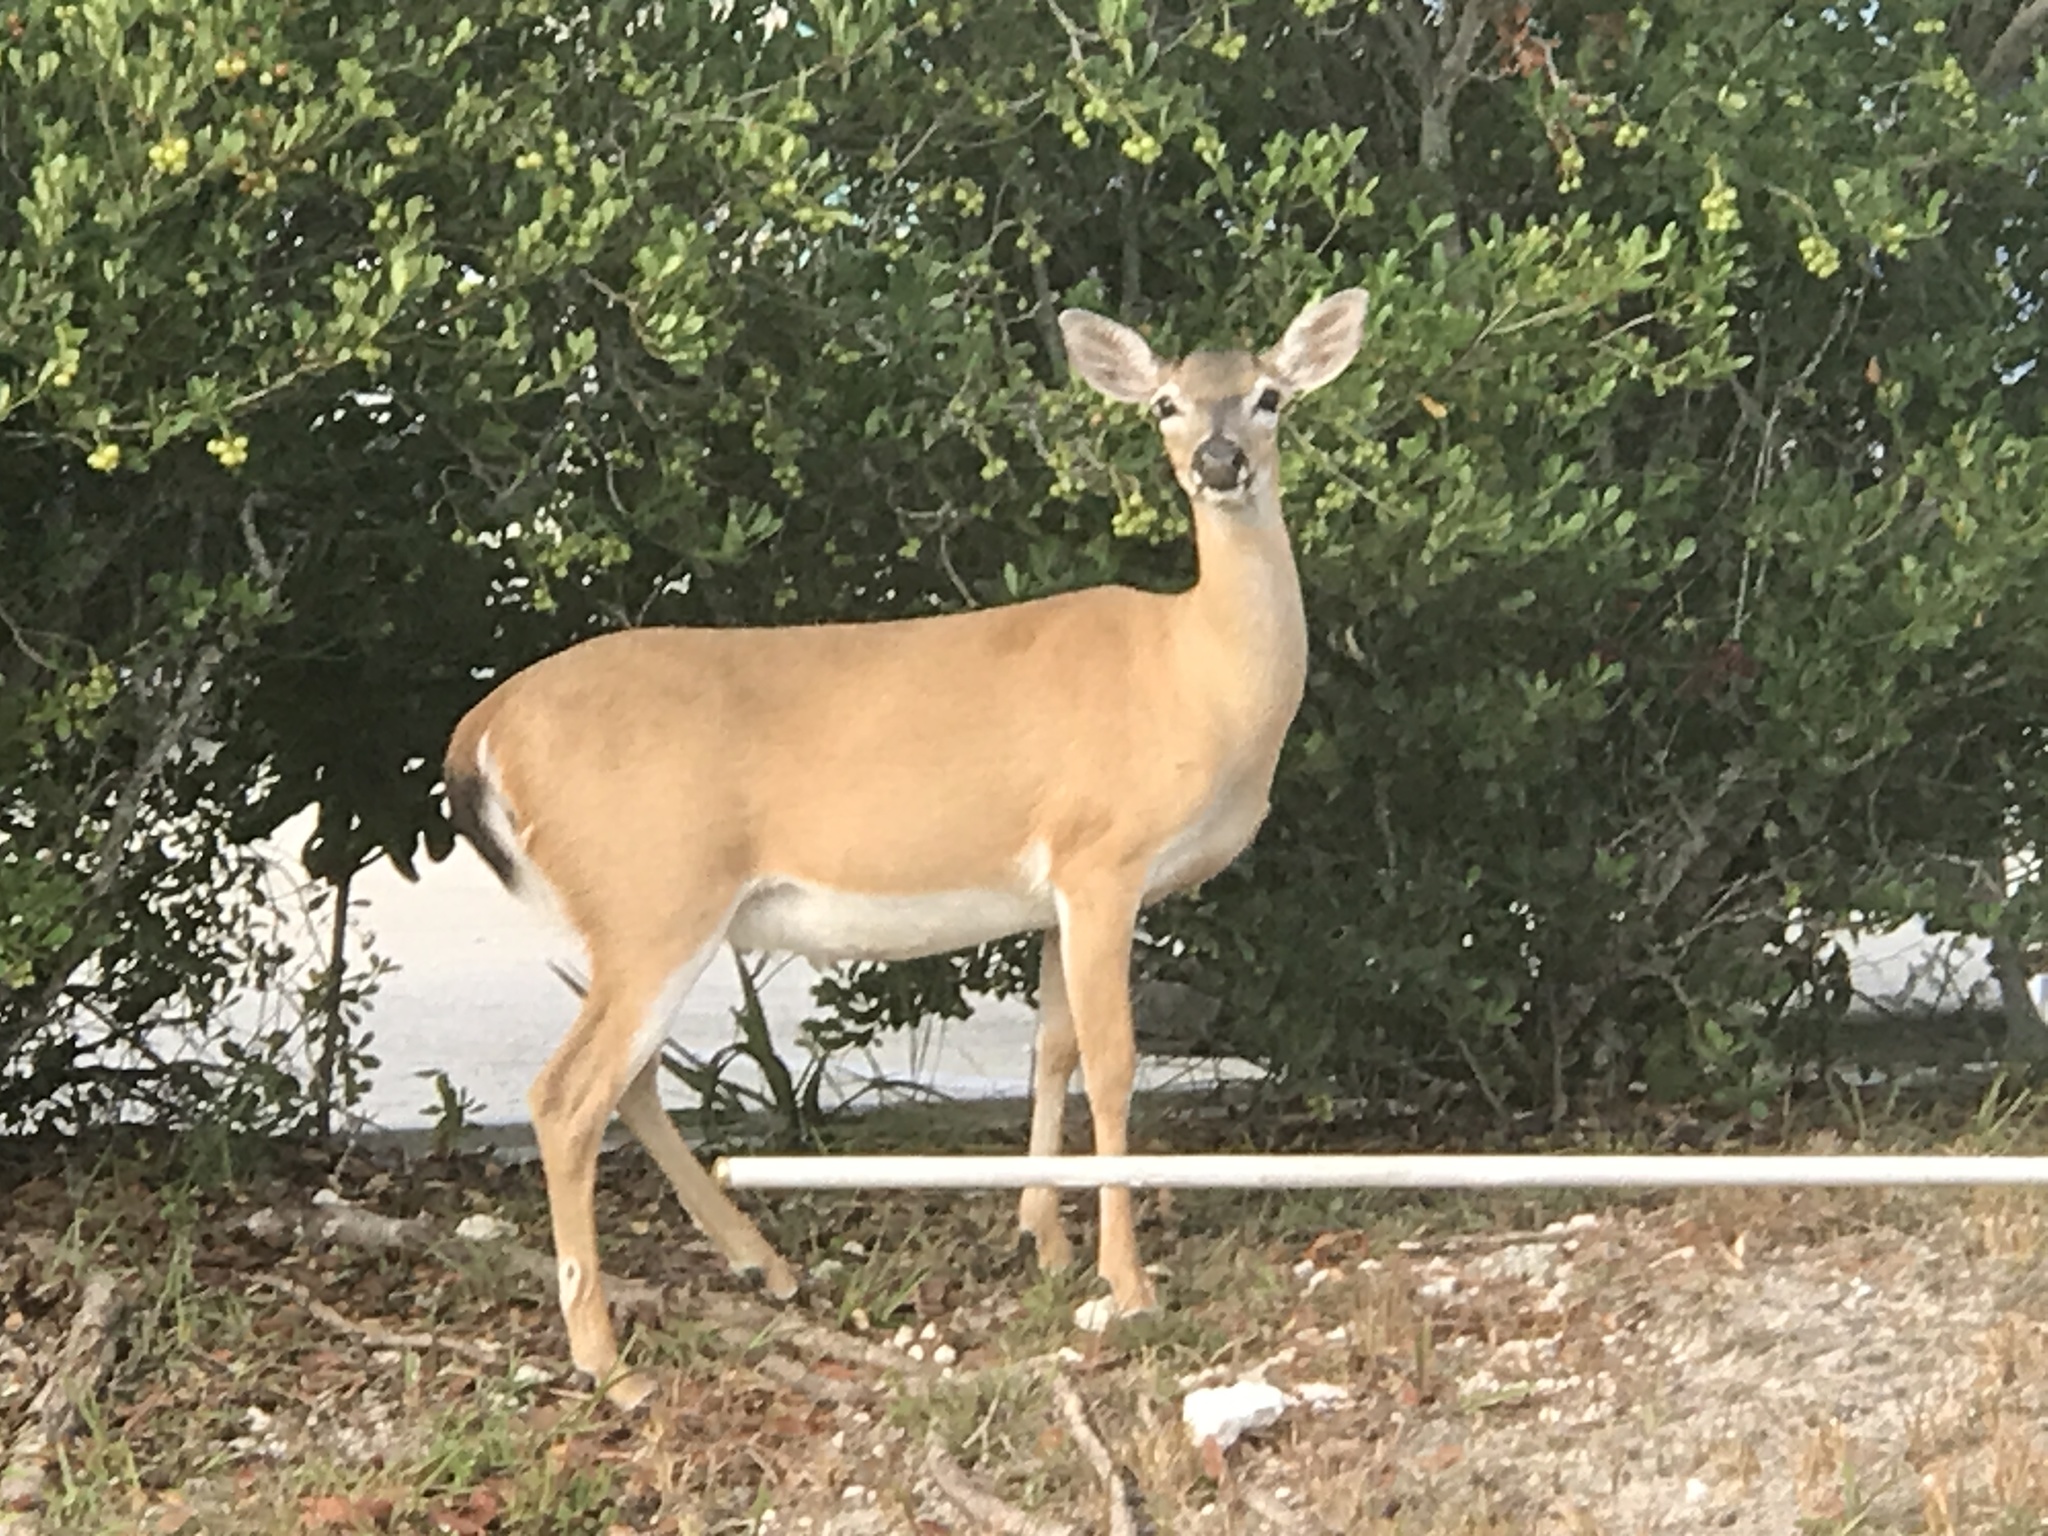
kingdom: Animalia
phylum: Chordata
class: Mammalia
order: Artiodactyla
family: Cervidae
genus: Odocoileus
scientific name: Odocoileus virginianus
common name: White-tailed deer
